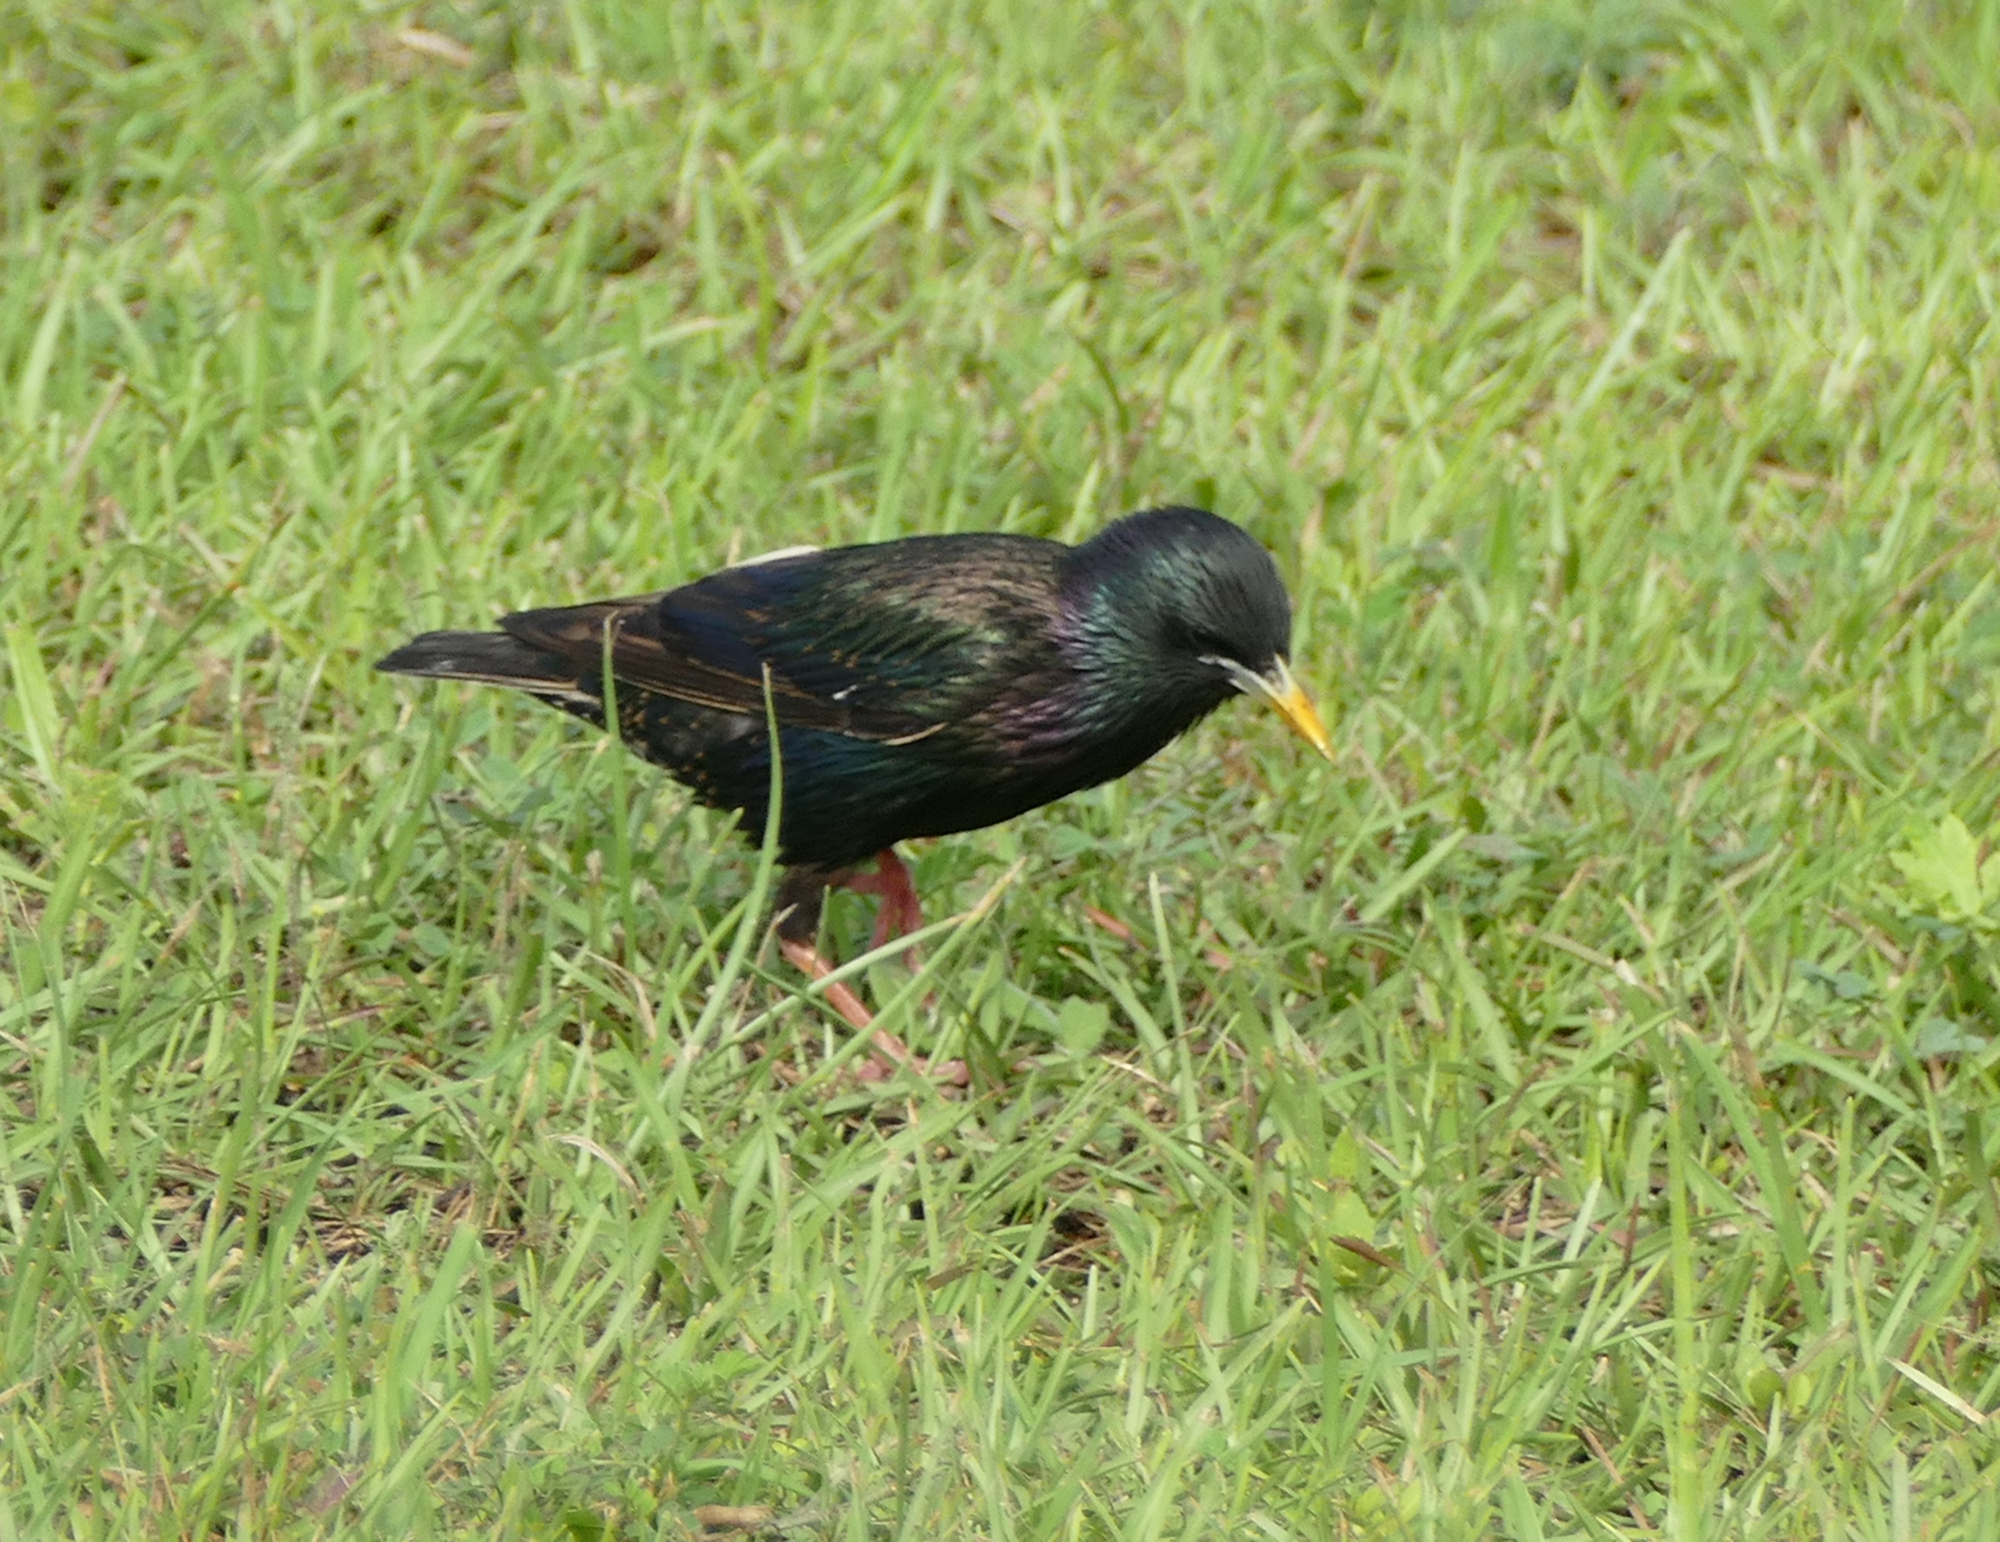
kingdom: Animalia
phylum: Chordata
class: Aves
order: Passeriformes
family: Sturnidae
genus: Sturnus
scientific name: Sturnus vulgaris
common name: Common starling
